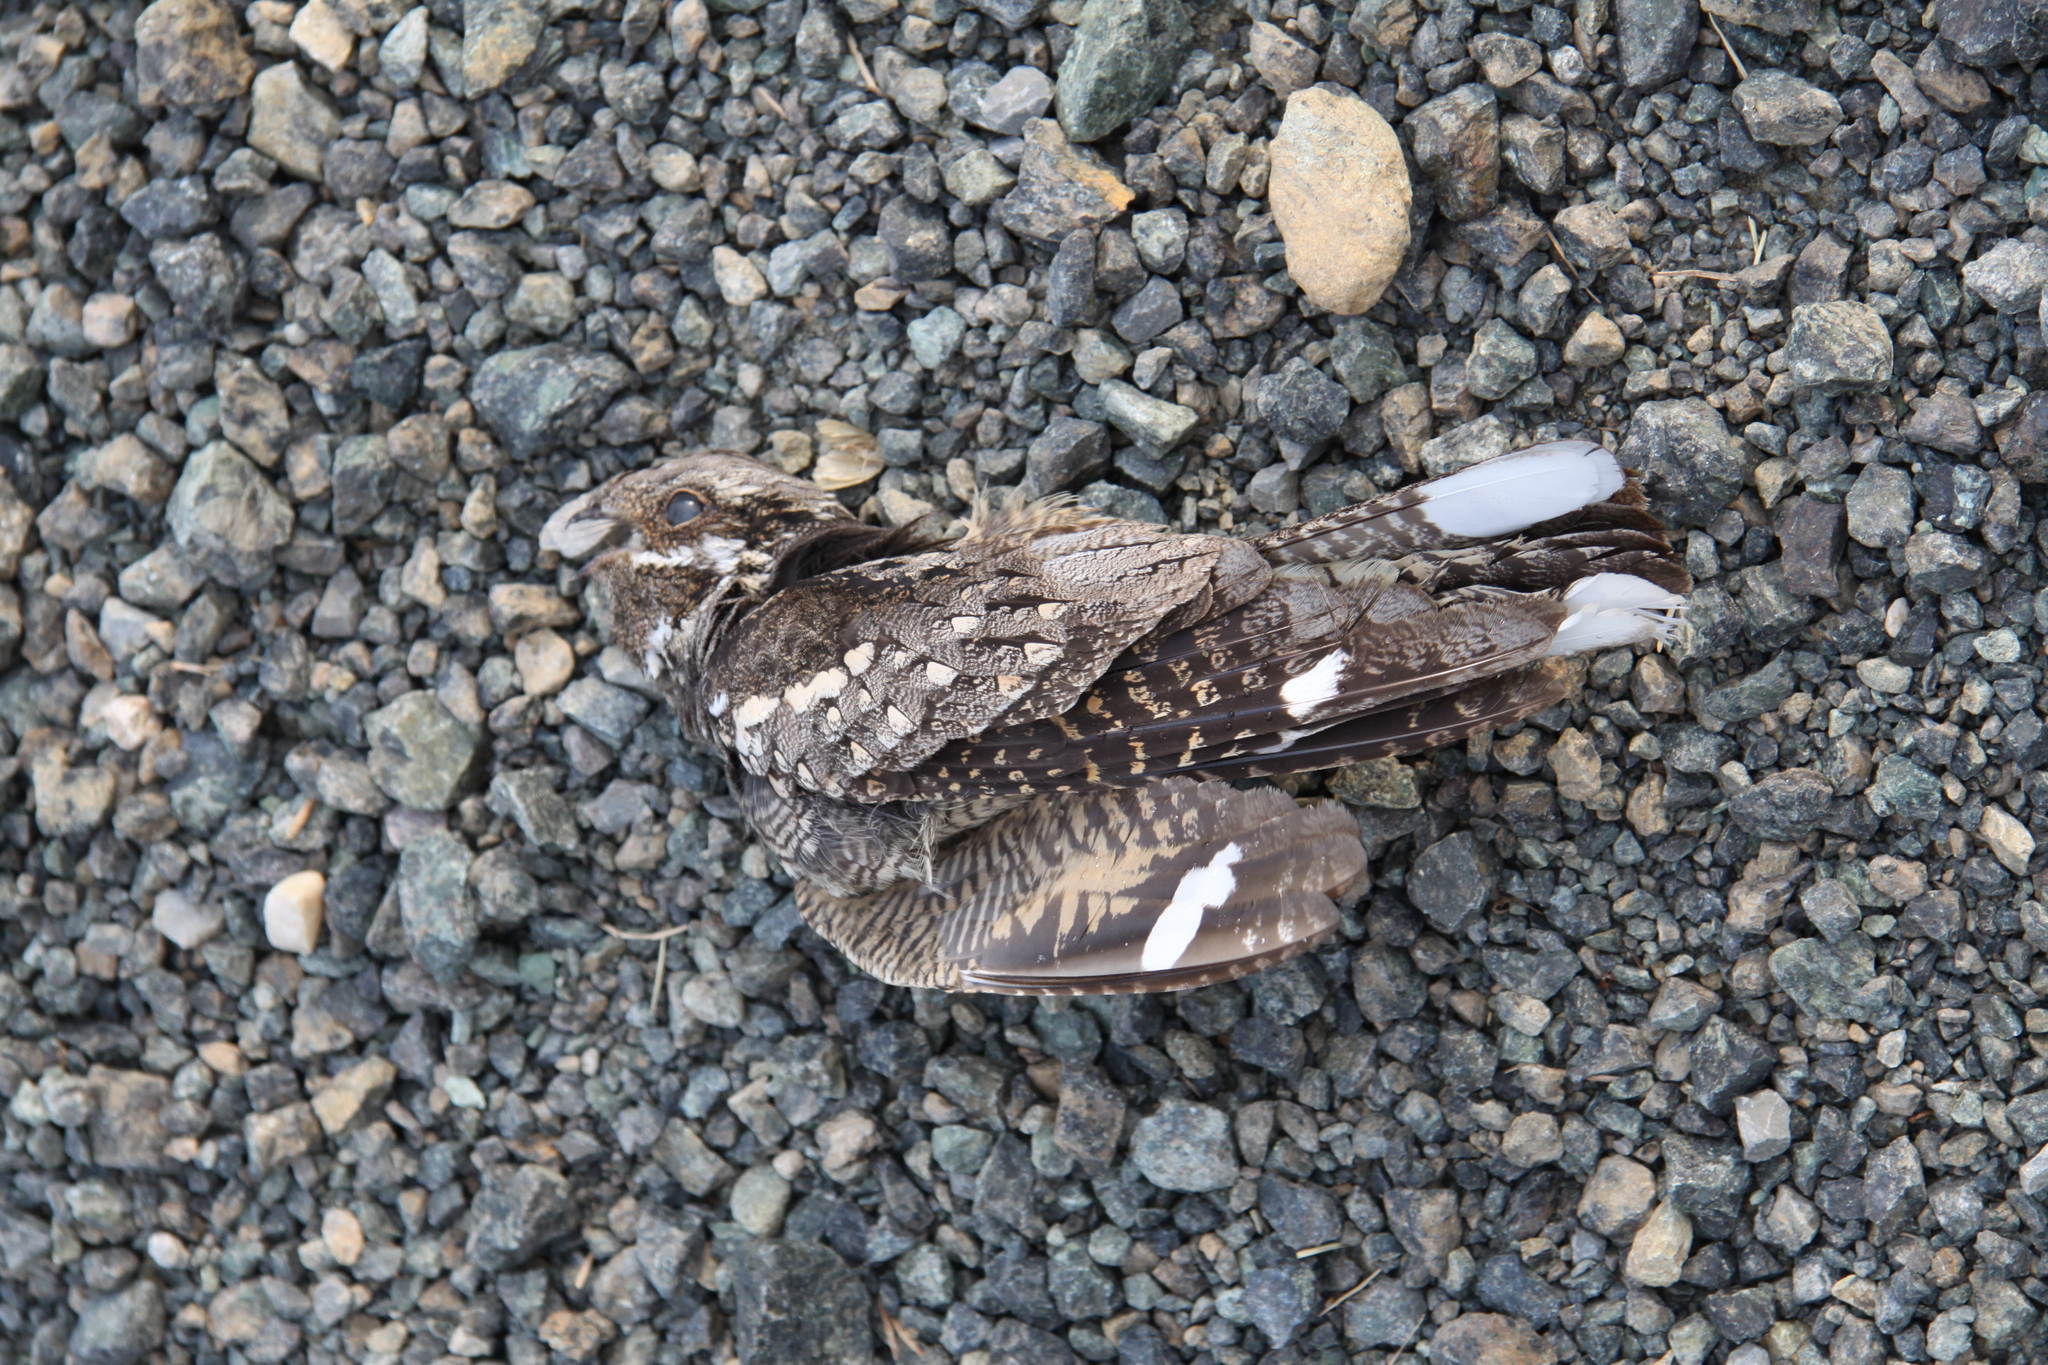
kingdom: Animalia
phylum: Chordata
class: Aves
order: Caprimulgiformes
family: Caprimulgidae
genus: Caprimulgus
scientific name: Caprimulgus europaeus
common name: European nightjar
